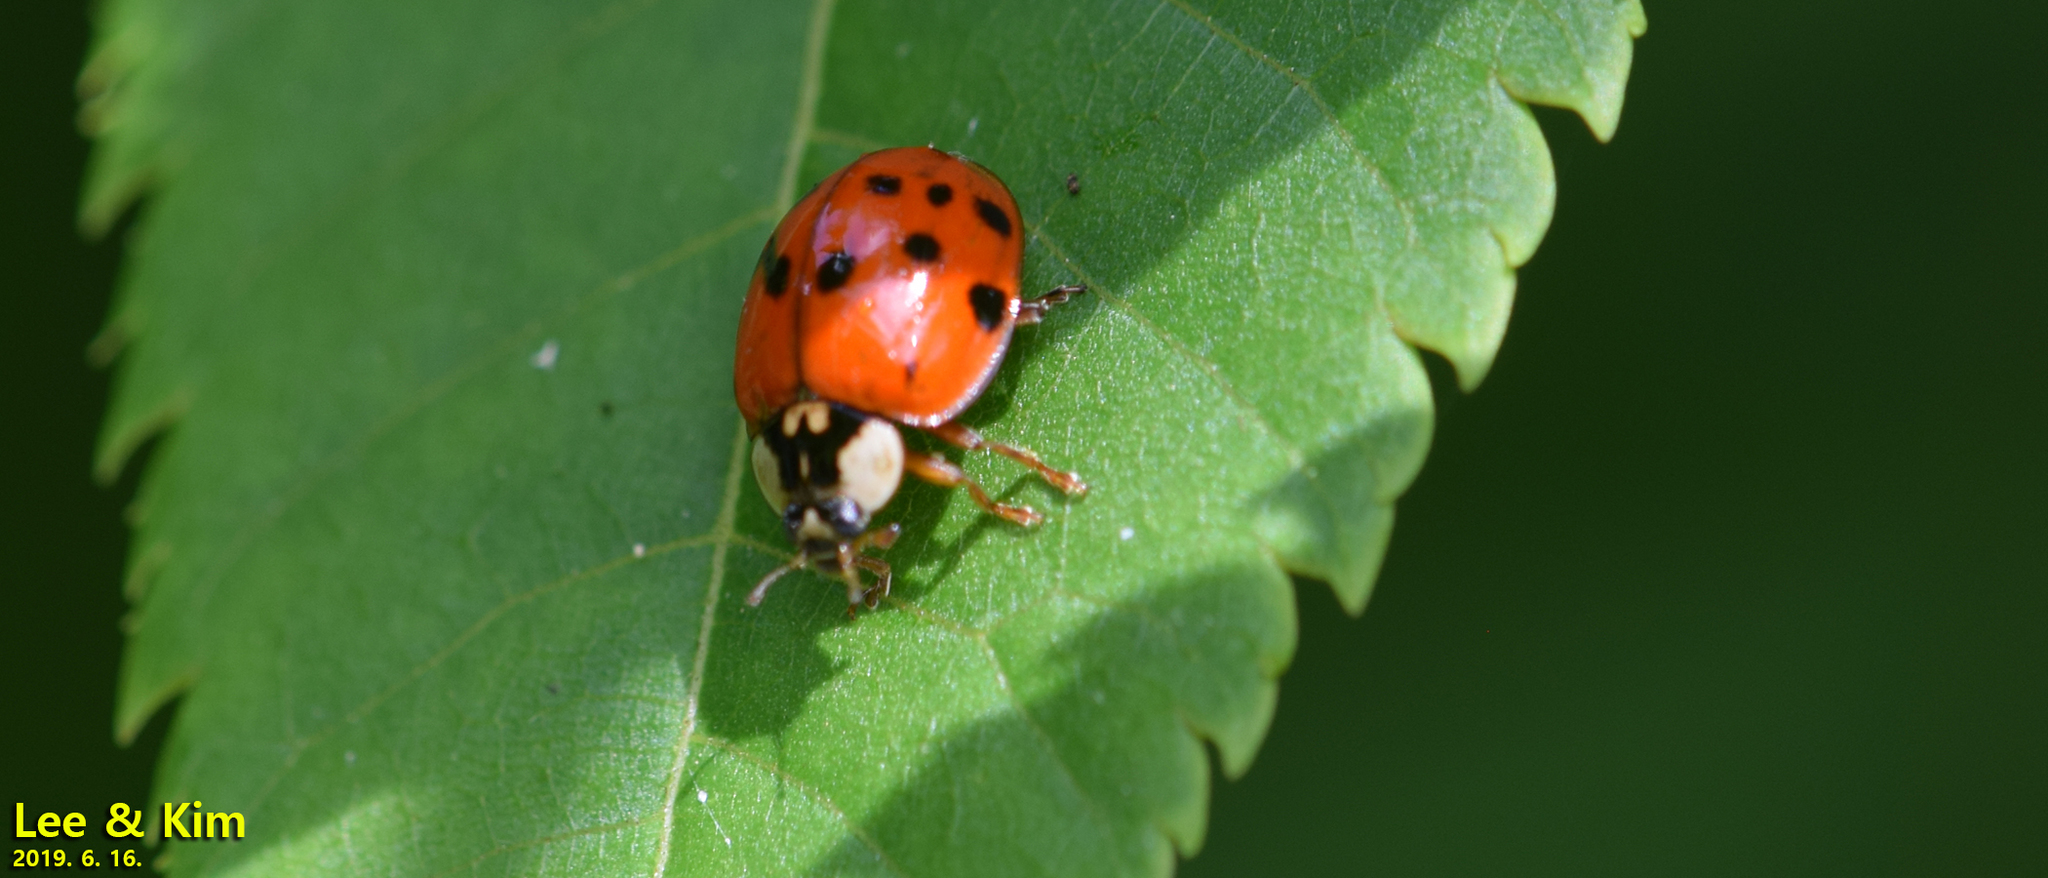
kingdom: Animalia
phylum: Arthropoda
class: Insecta
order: Coleoptera
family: Coccinellidae
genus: Harmonia
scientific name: Harmonia axyridis
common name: Harlequin ladybird
